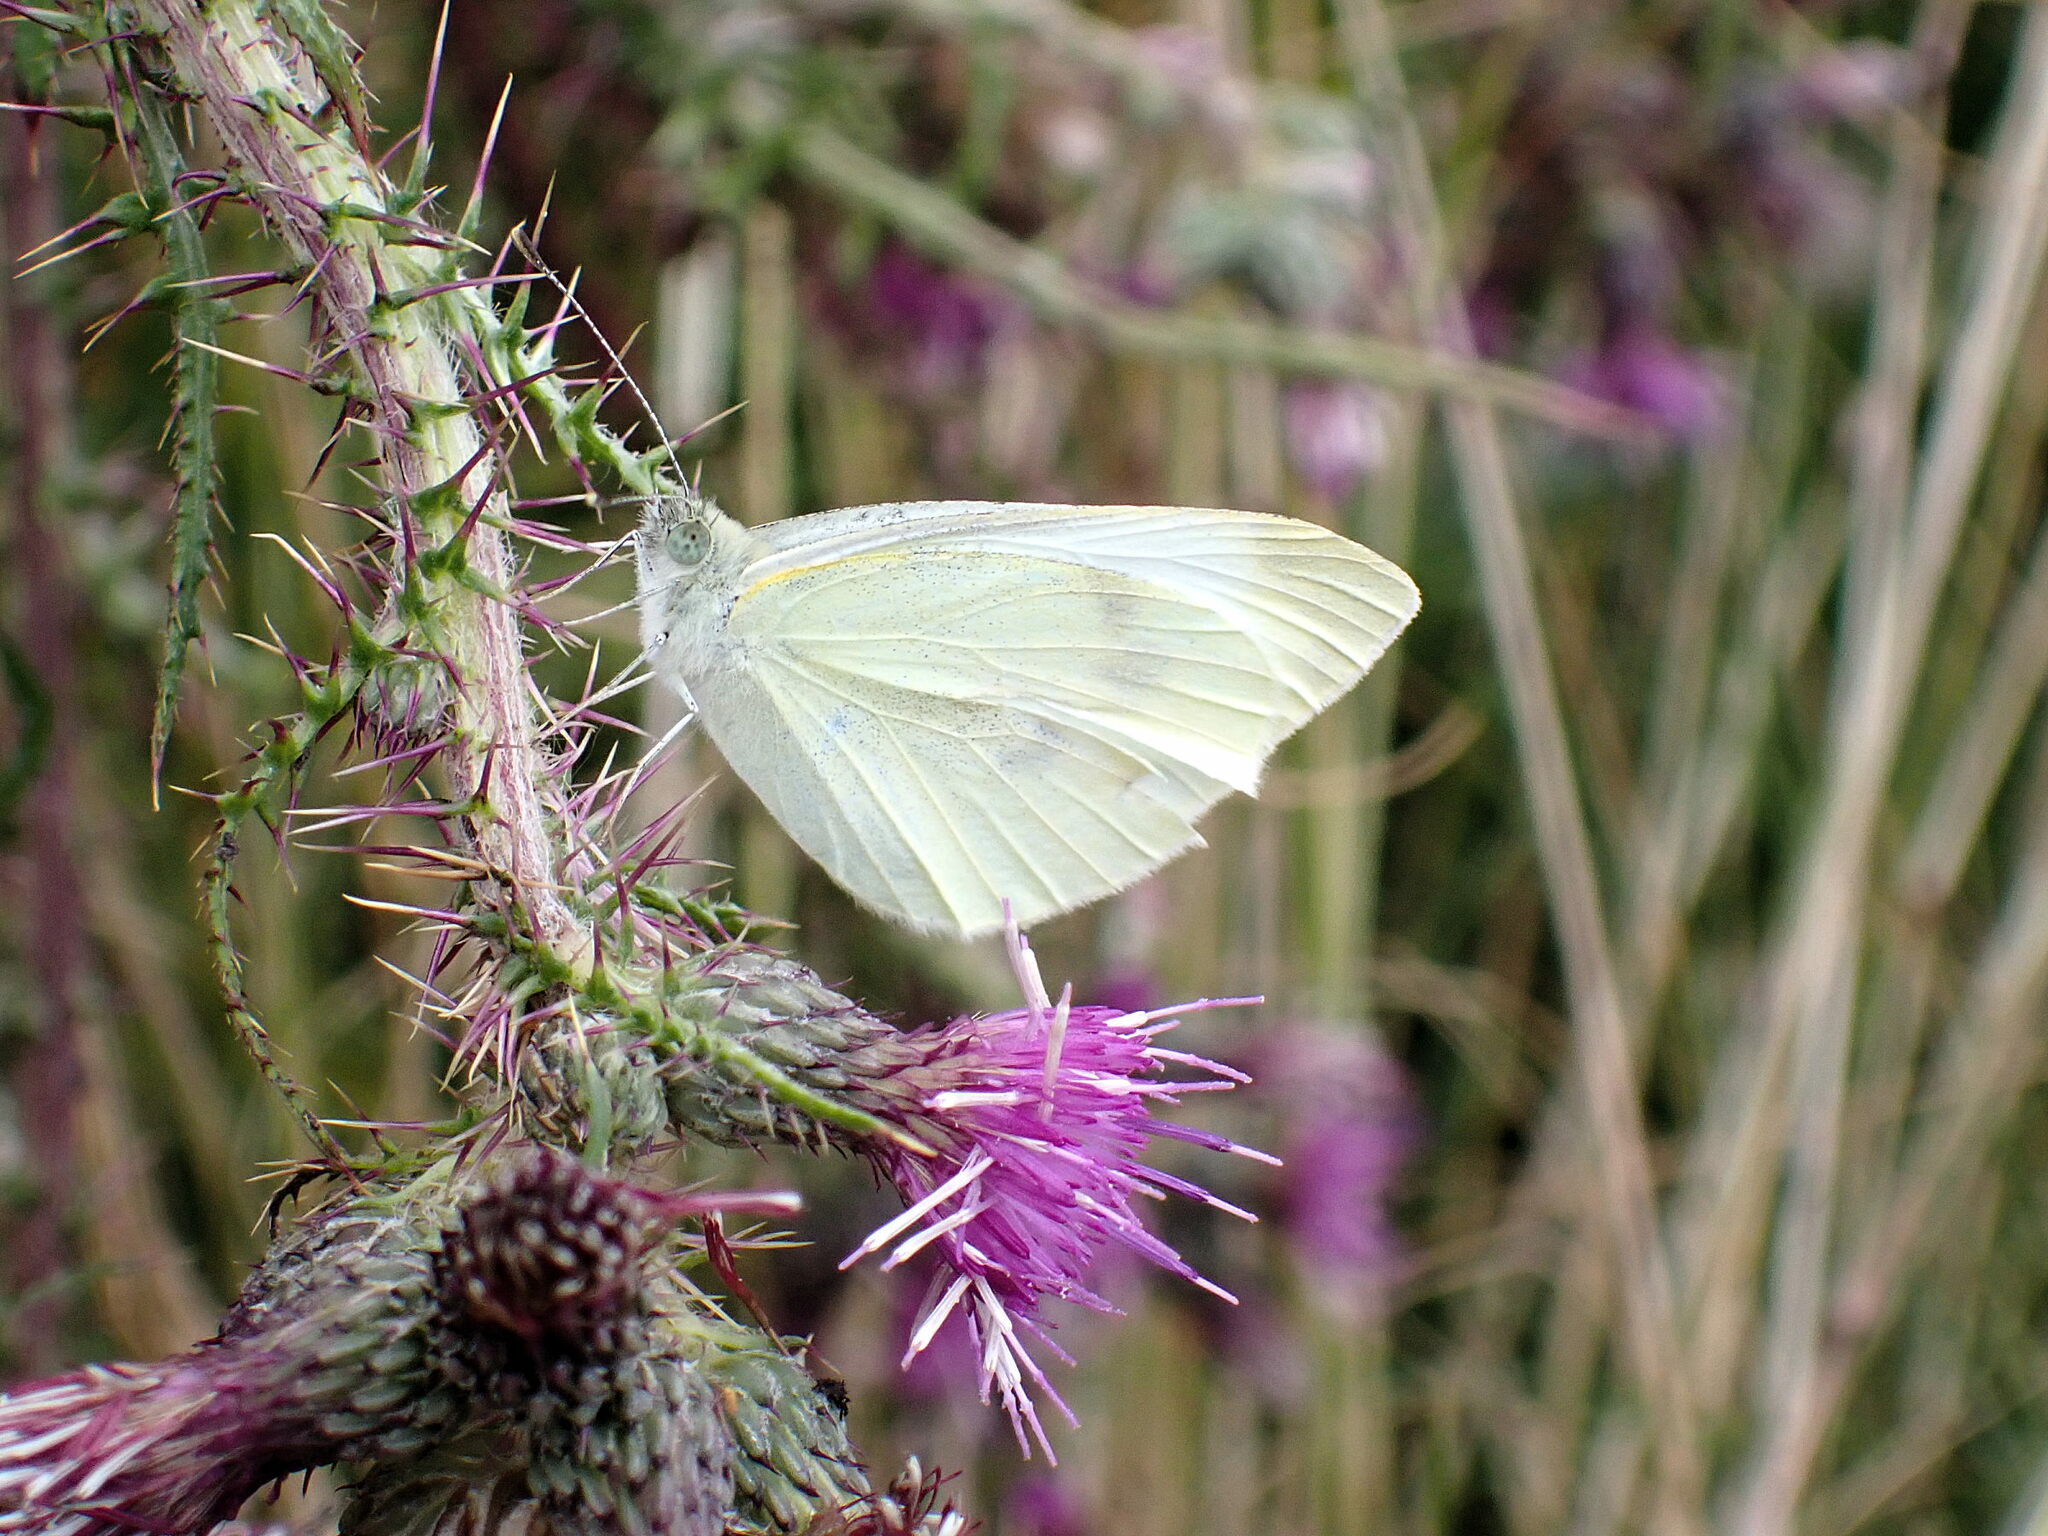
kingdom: Animalia
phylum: Arthropoda
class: Insecta
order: Lepidoptera
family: Pieridae
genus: Pieris
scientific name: Pieris rapae
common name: Small white
